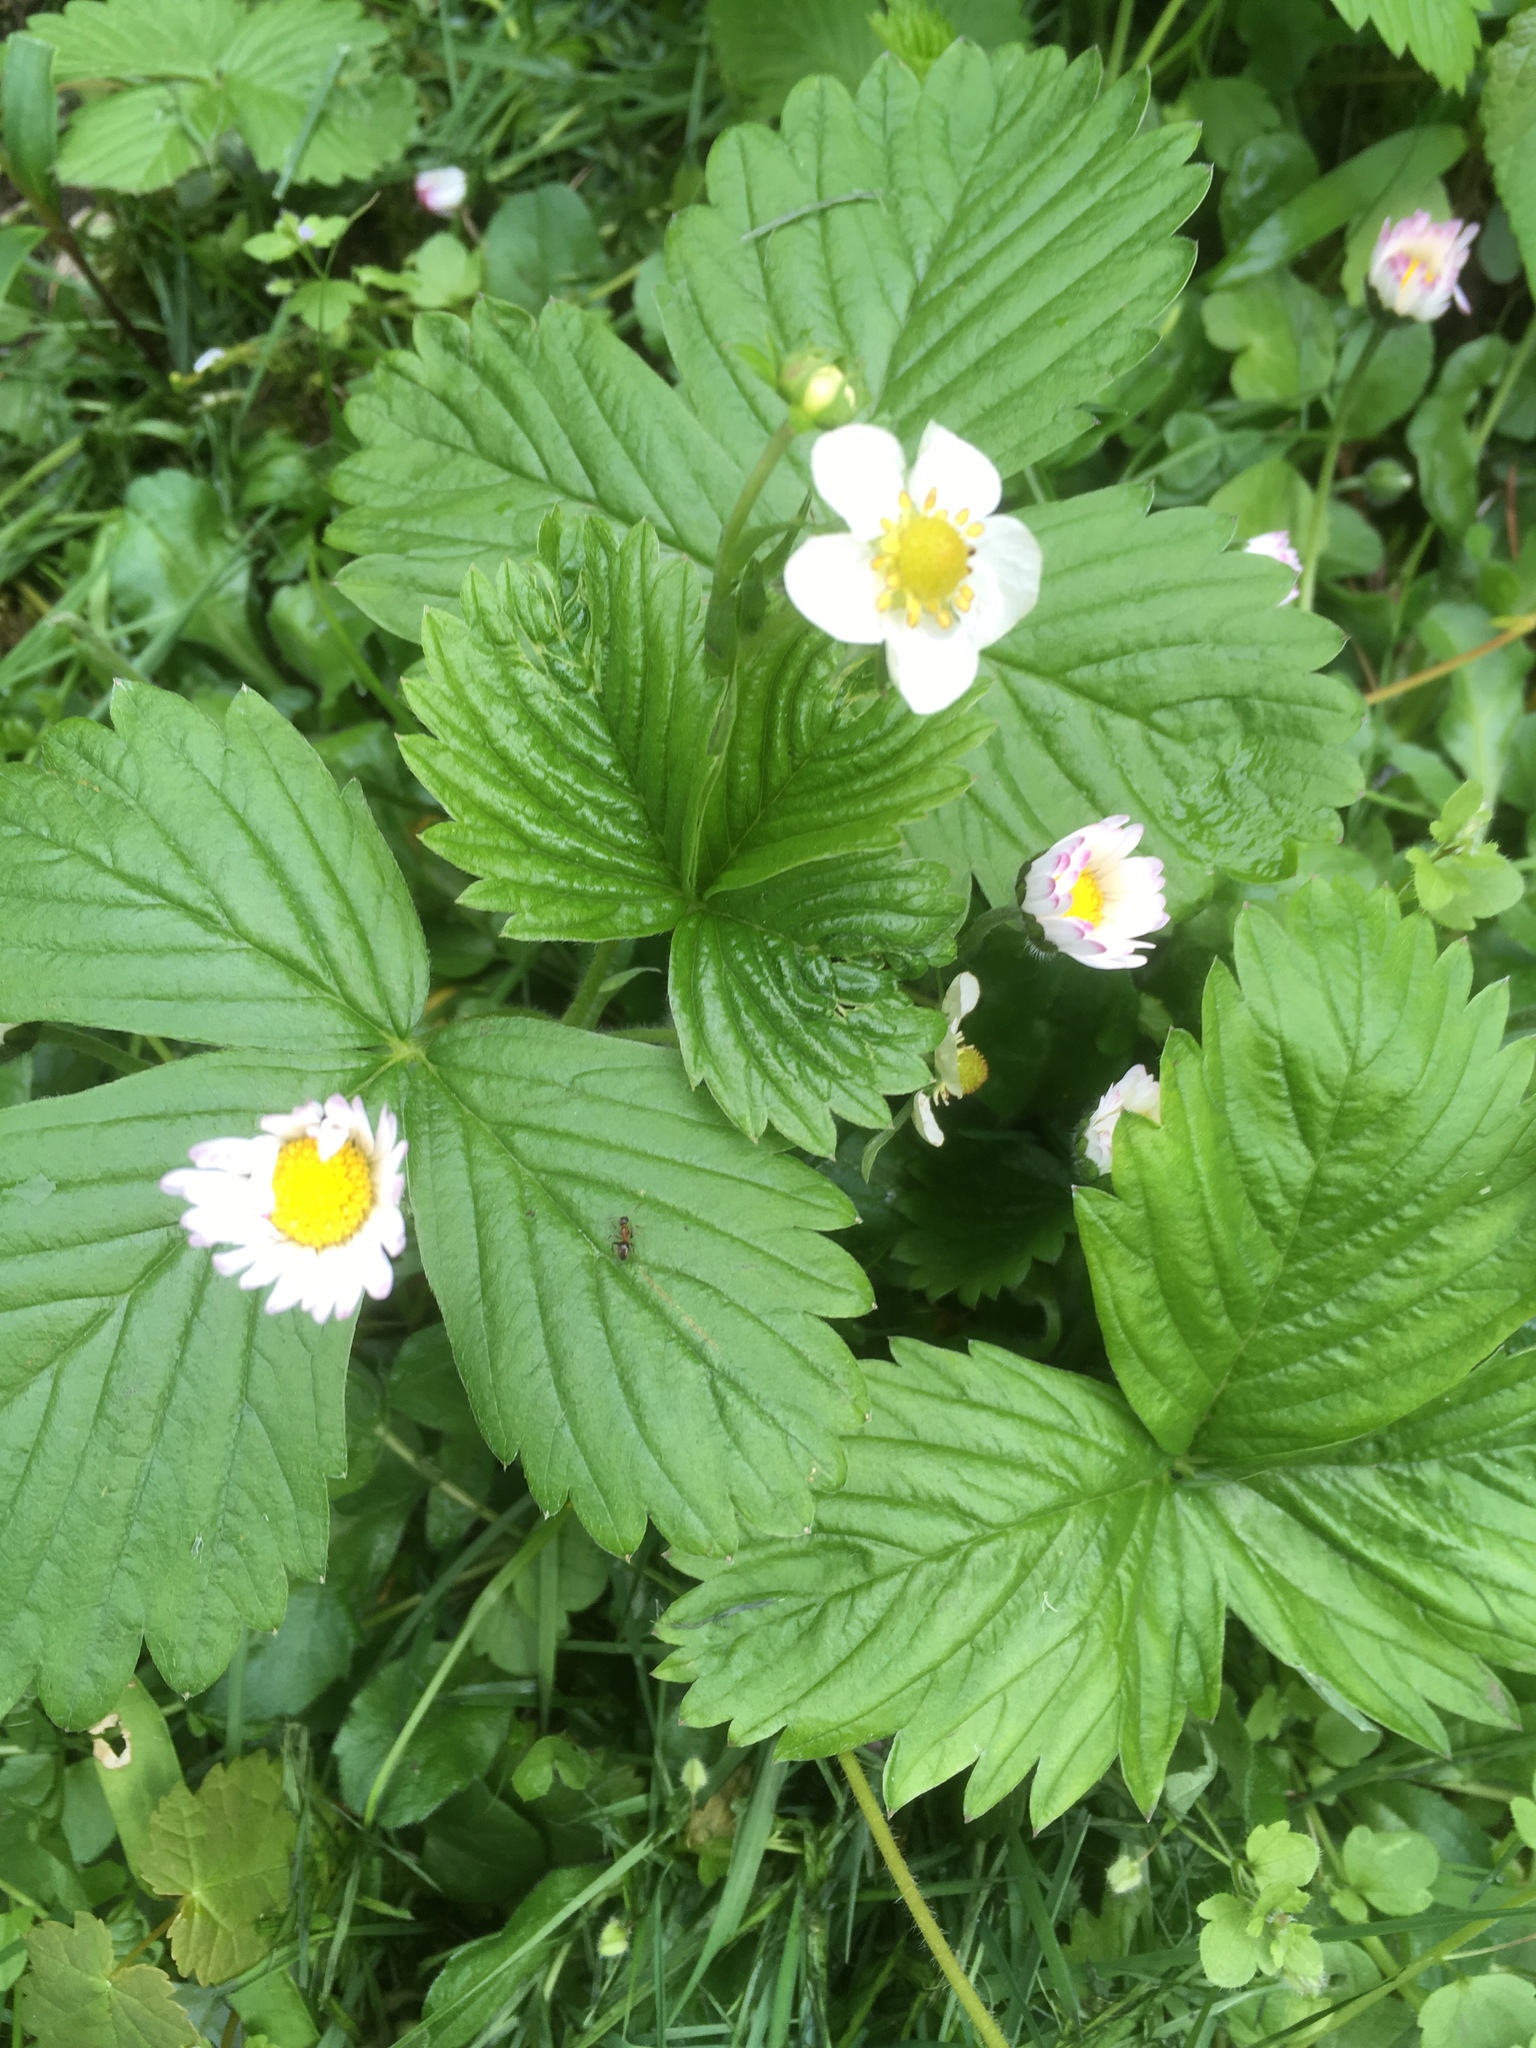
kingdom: Plantae
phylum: Tracheophyta
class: Magnoliopsida
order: Rosales
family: Rosaceae
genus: Fragaria
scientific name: Fragaria vesca
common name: Wild strawberry
